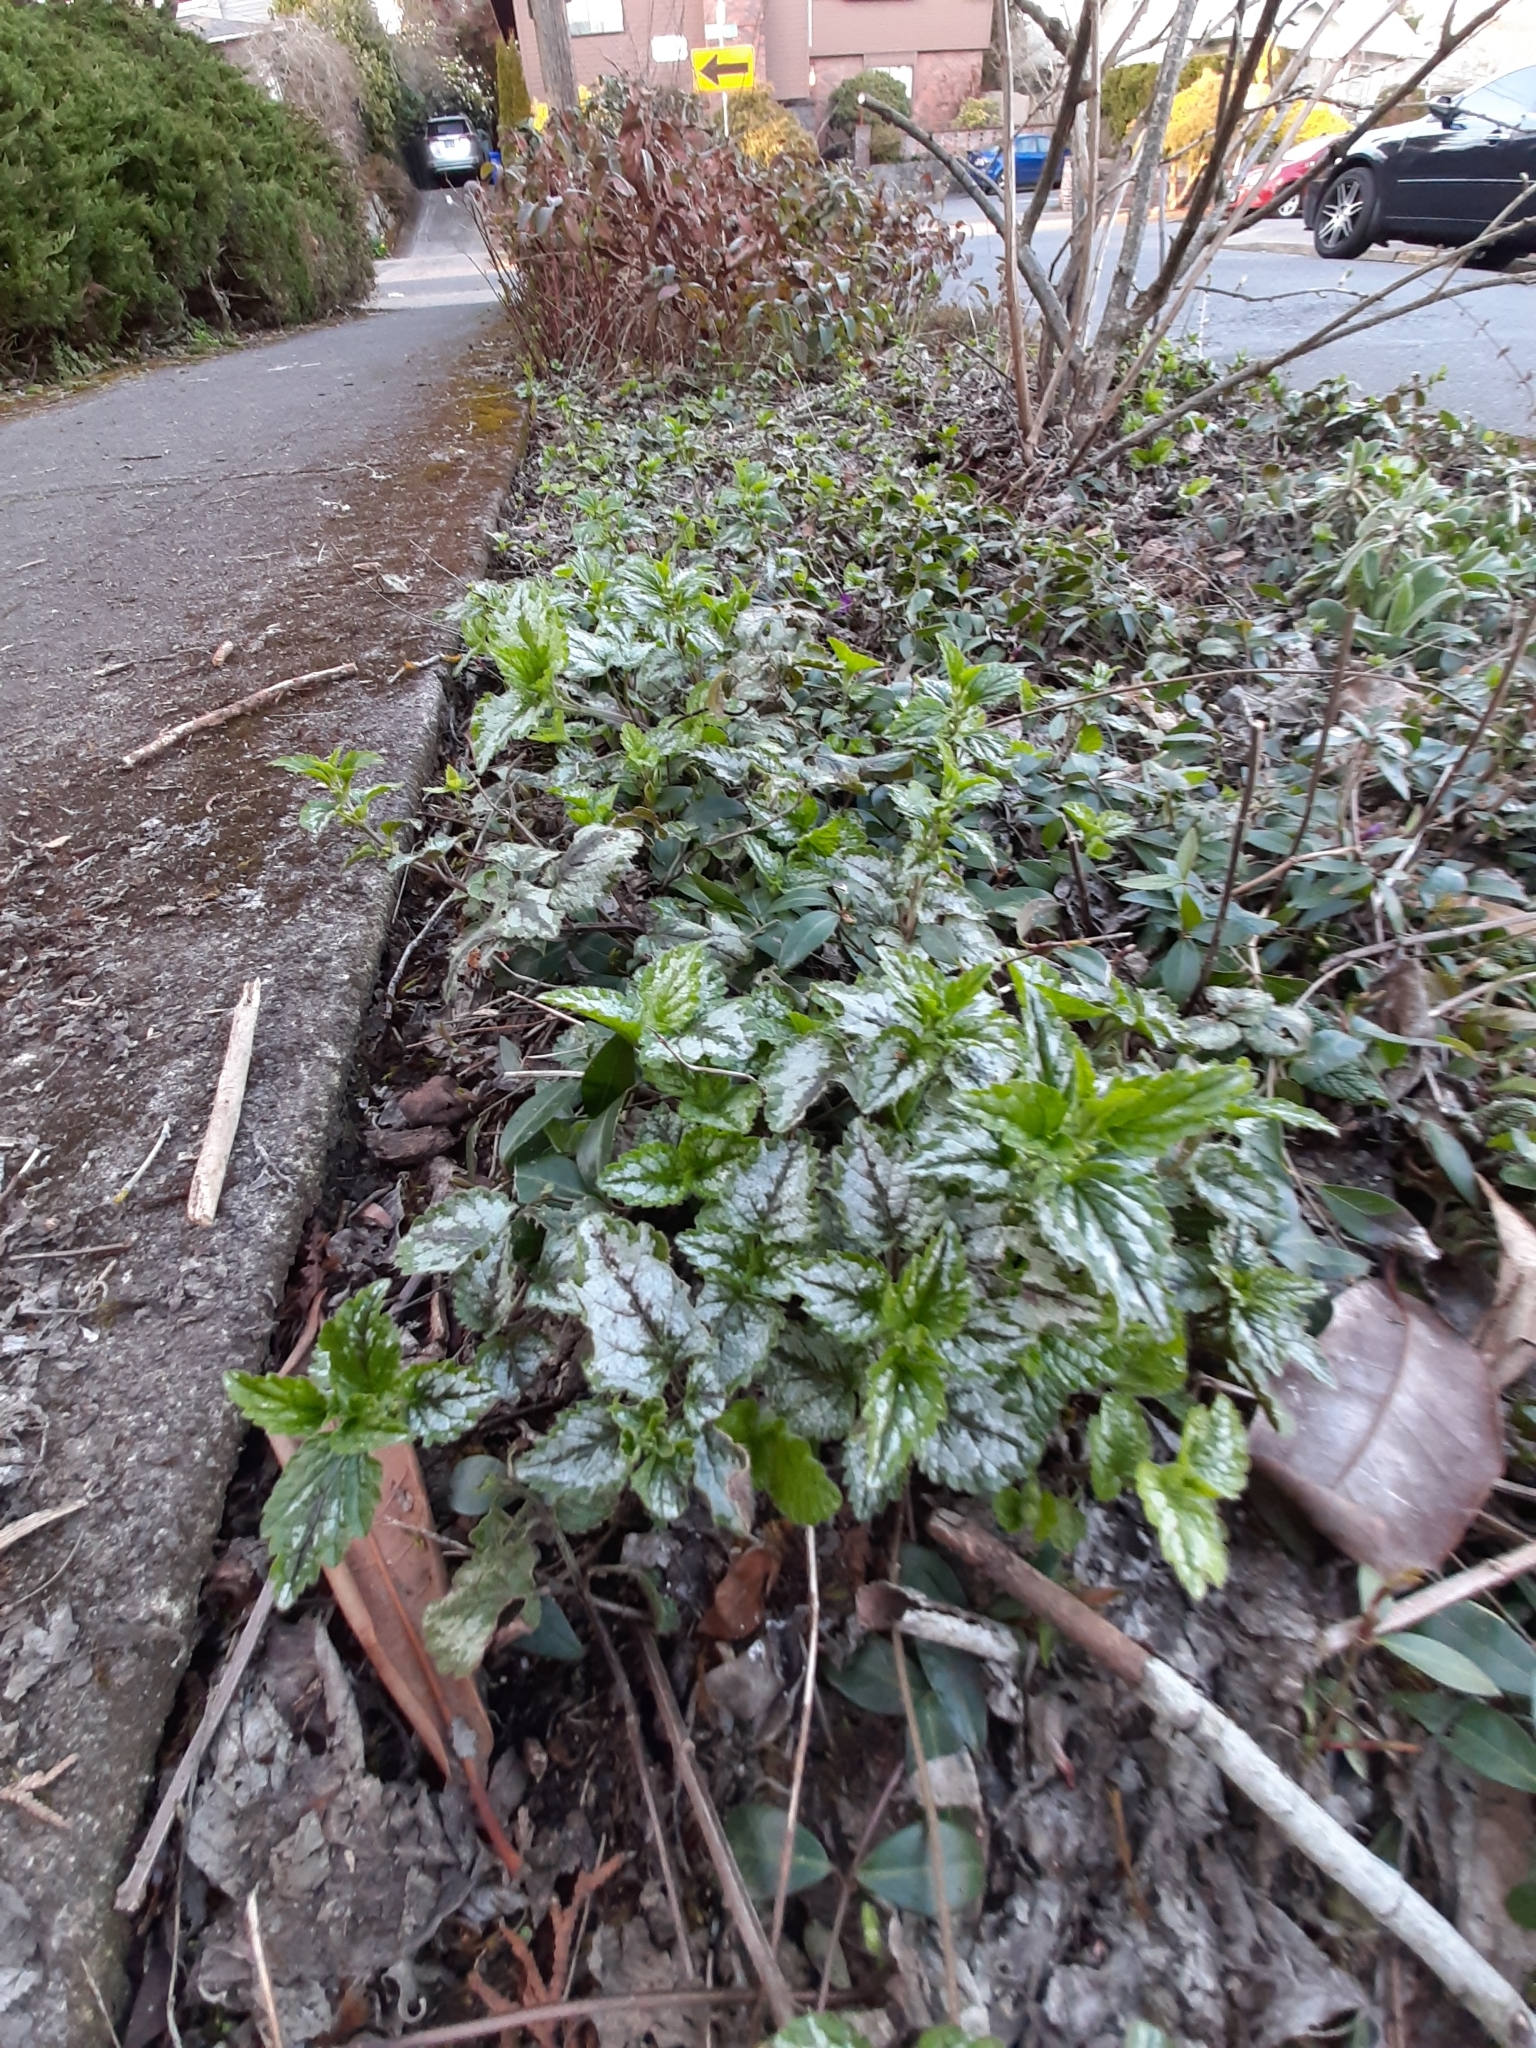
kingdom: Plantae
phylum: Tracheophyta
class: Magnoliopsida
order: Lamiales
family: Lamiaceae
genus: Lamium
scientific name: Lamium galeobdolon
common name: Yellow archangel
